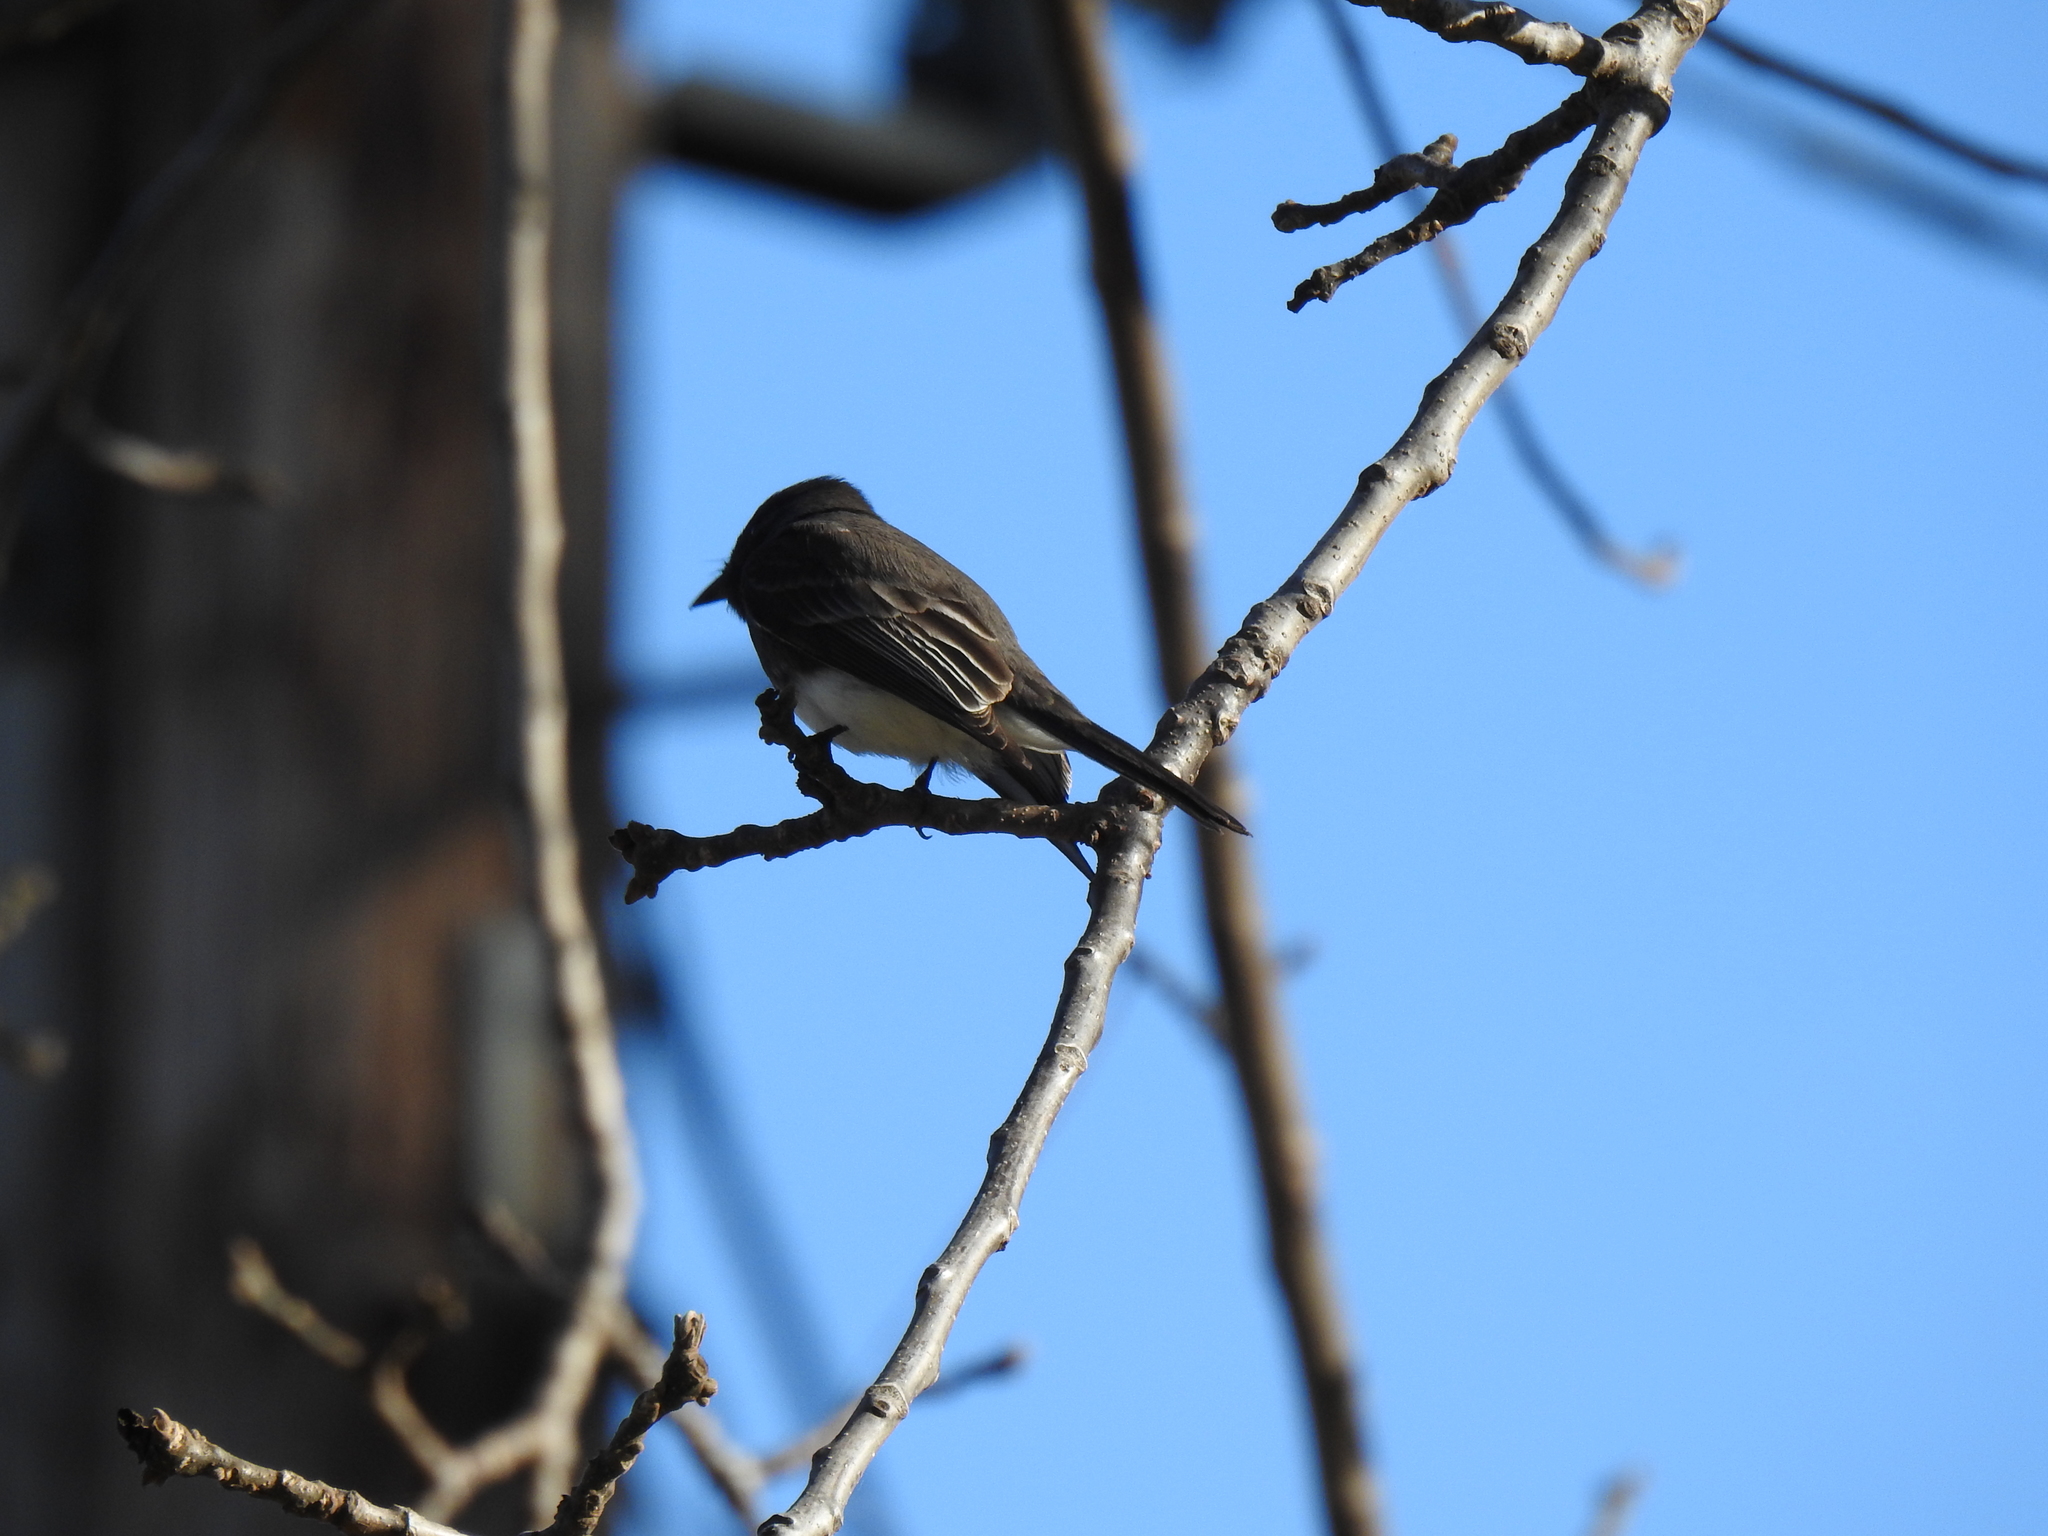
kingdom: Animalia
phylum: Chordata
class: Aves
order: Passeriformes
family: Tyrannidae
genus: Sayornis
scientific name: Sayornis nigricans
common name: Black phoebe
